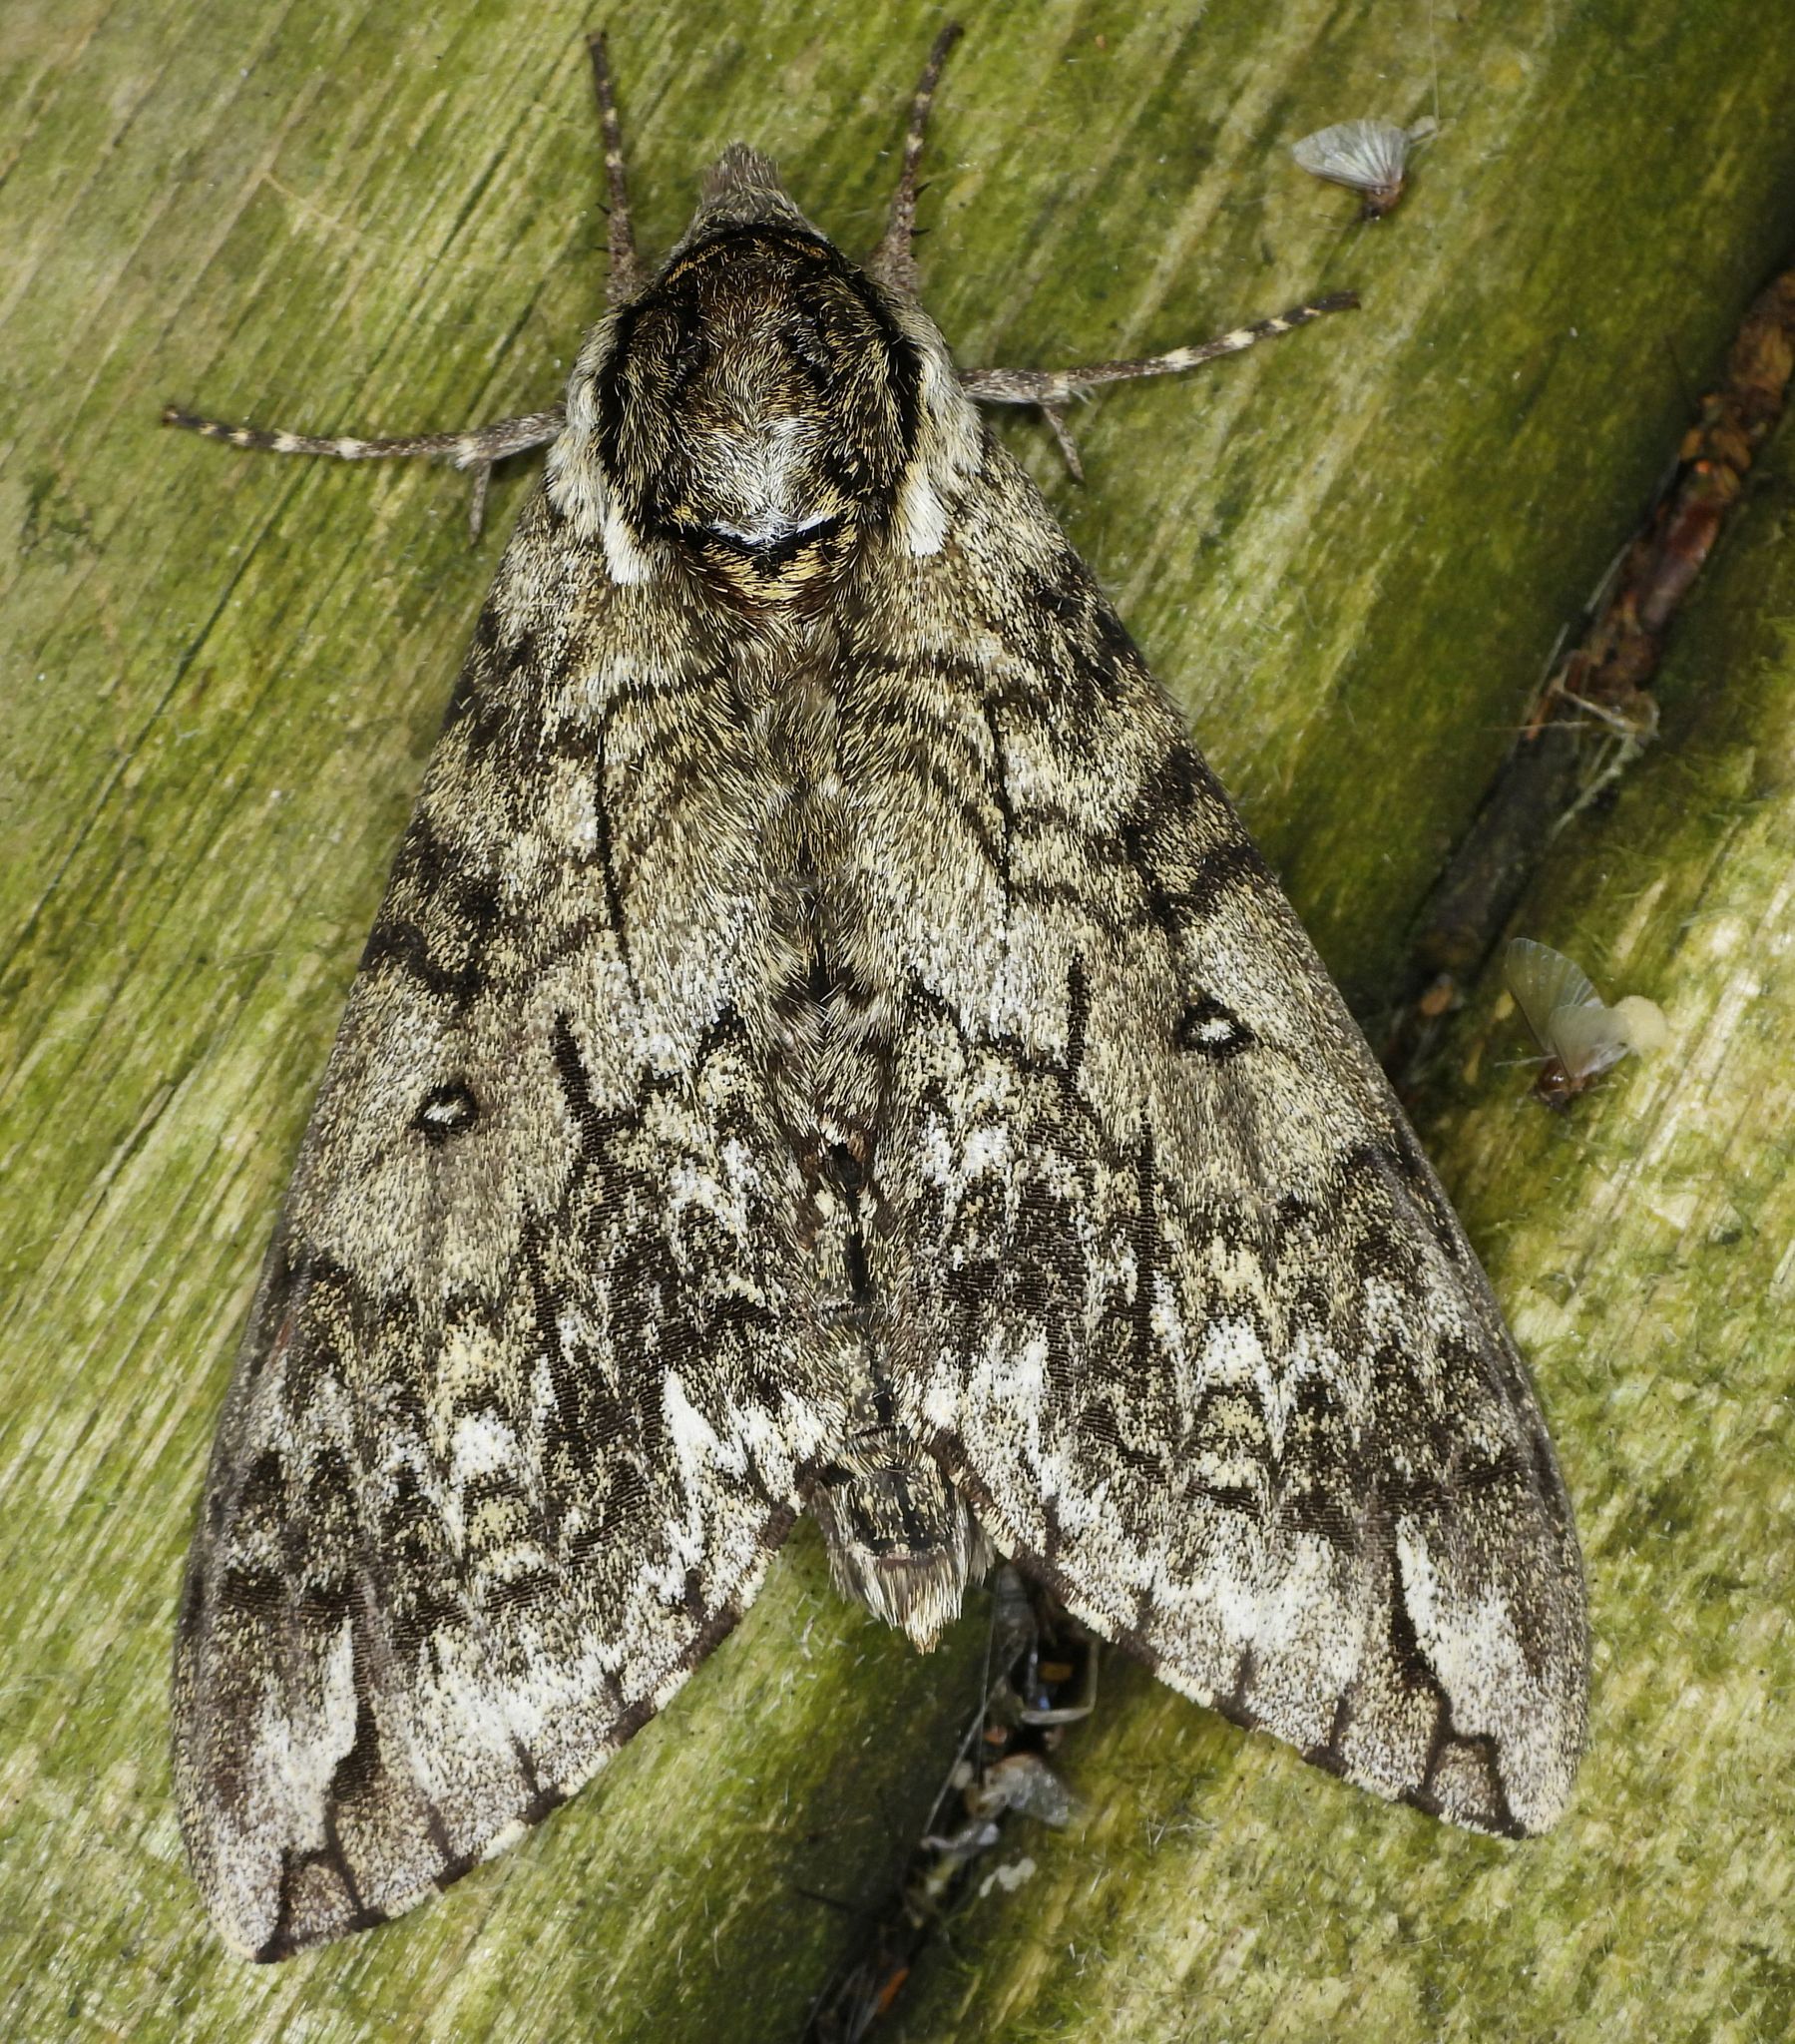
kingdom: Animalia
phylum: Arthropoda
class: Insecta
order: Lepidoptera
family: Sphingidae
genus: Ceratomia
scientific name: Ceratomia undulosa
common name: Waved sphinx
